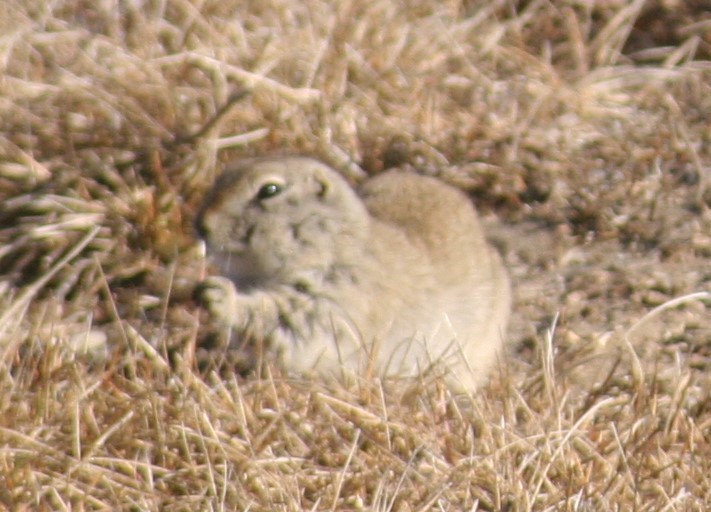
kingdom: Animalia
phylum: Chordata
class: Mammalia
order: Rodentia
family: Sciuridae
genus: Urocitellus
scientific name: Urocitellus richardsonii
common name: Richardson's ground squirrel
